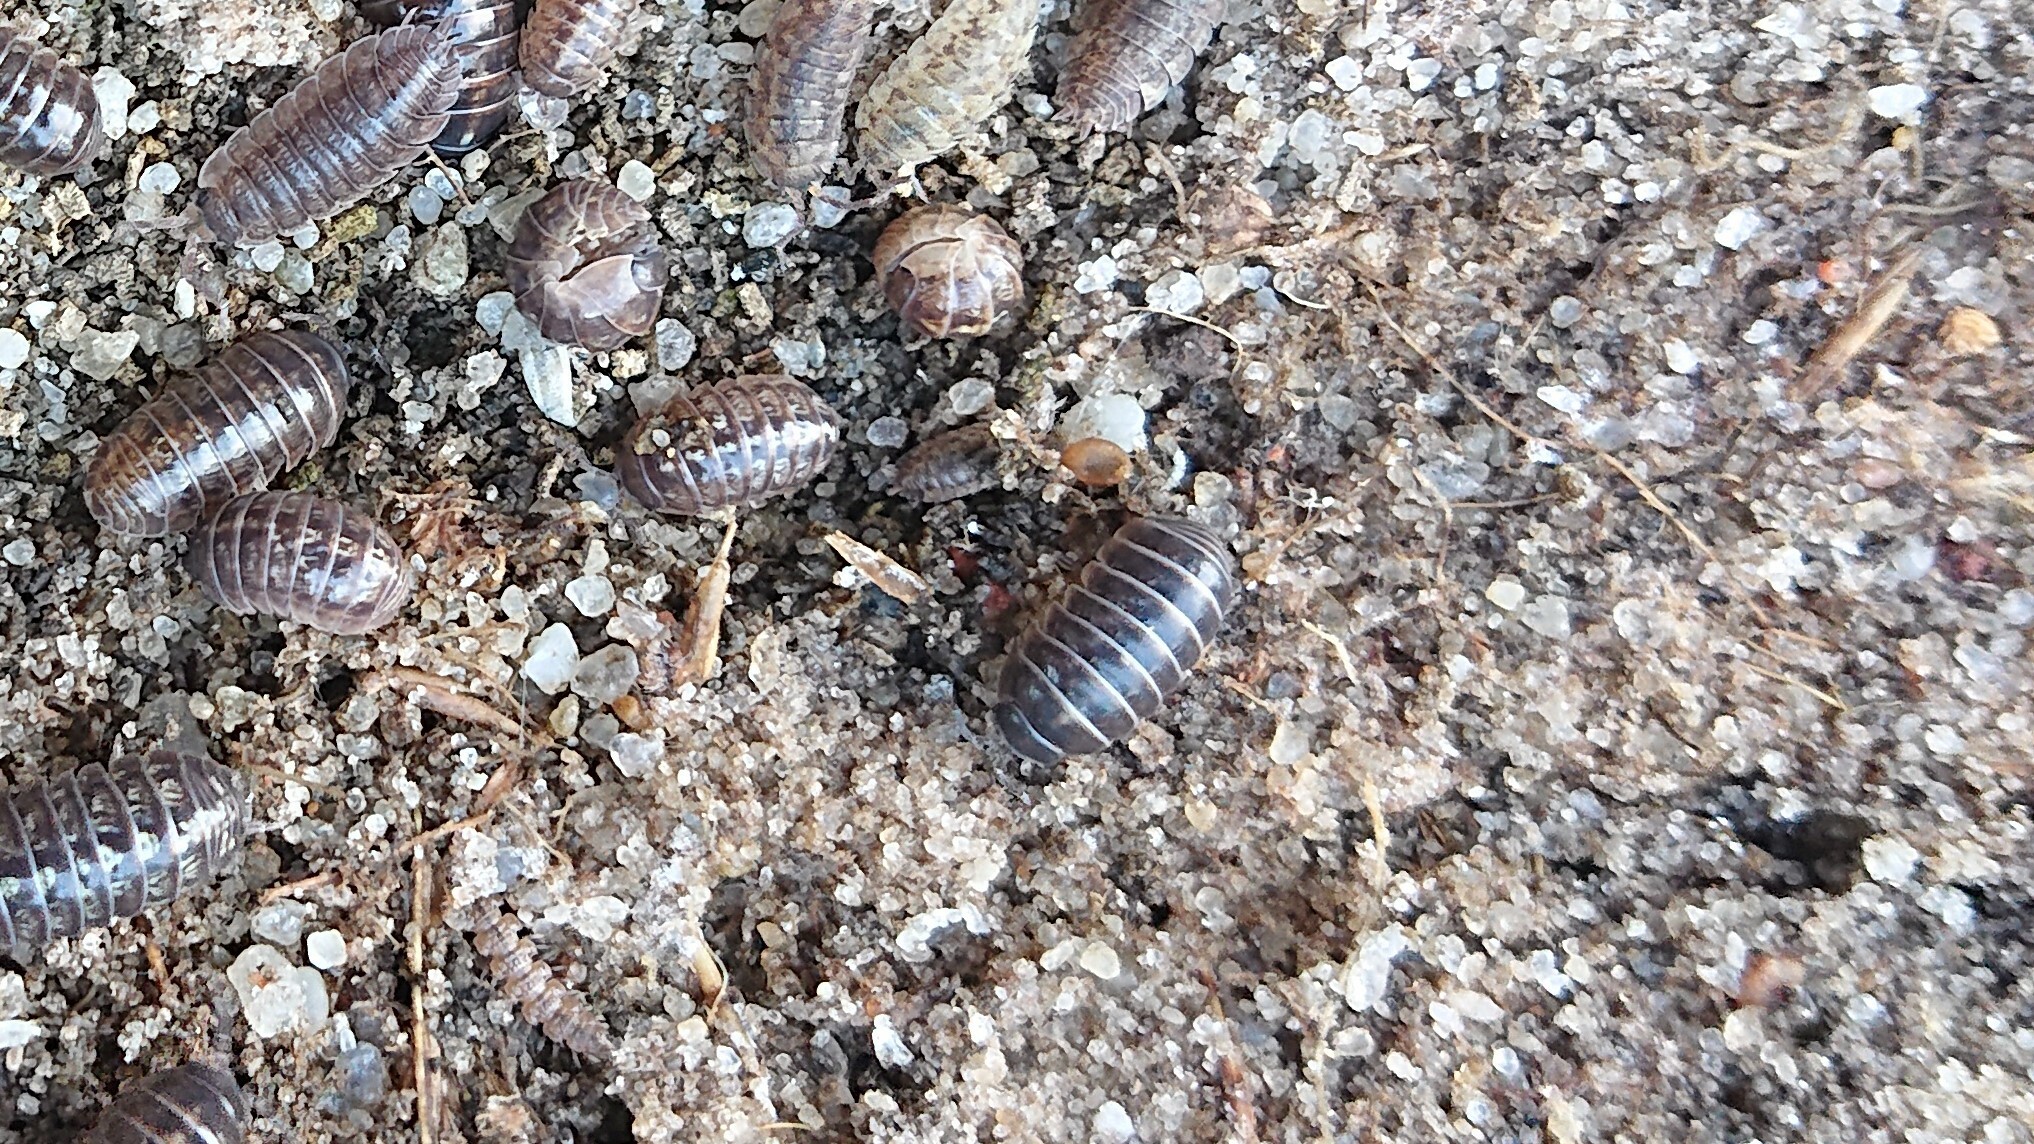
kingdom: Animalia
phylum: Arthropoda
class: Malacostraca
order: Isopoda
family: Armadillidiidae
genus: Armadillidium
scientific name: Armadillidium vulgare
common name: Common pill woodlouse
